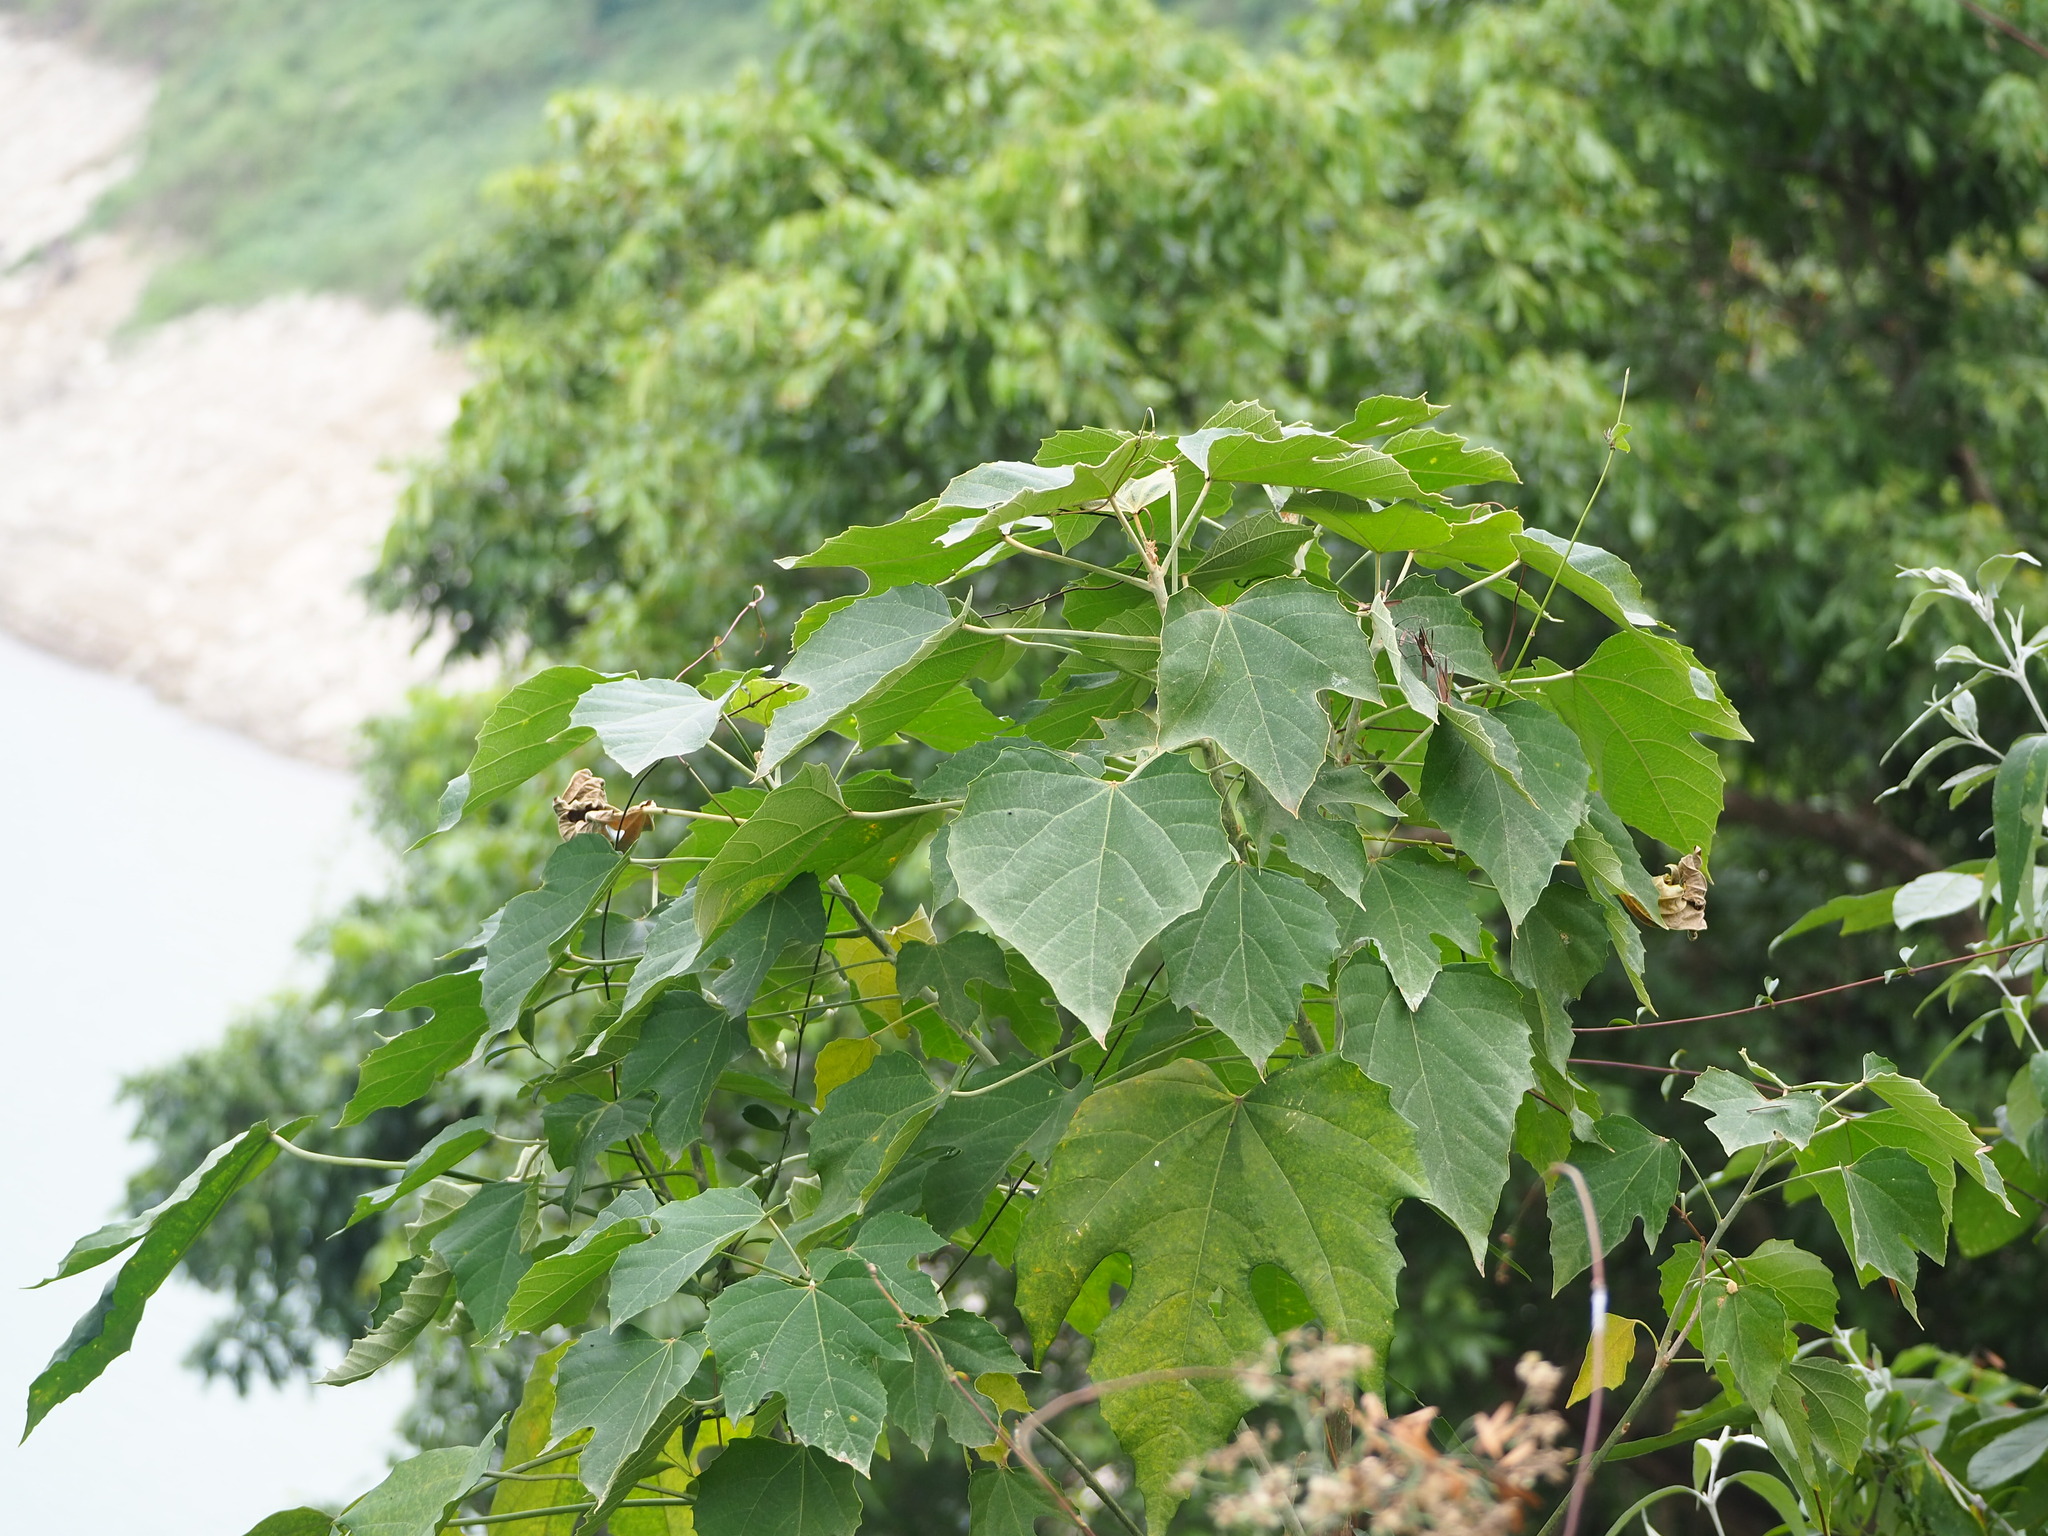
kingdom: Plantae
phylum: Tracheophyta
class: Magnoliopsida
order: Malpighiales
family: Euphorbiaceae
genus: Melanolepis
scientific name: Melanolepis multiglandulosa
